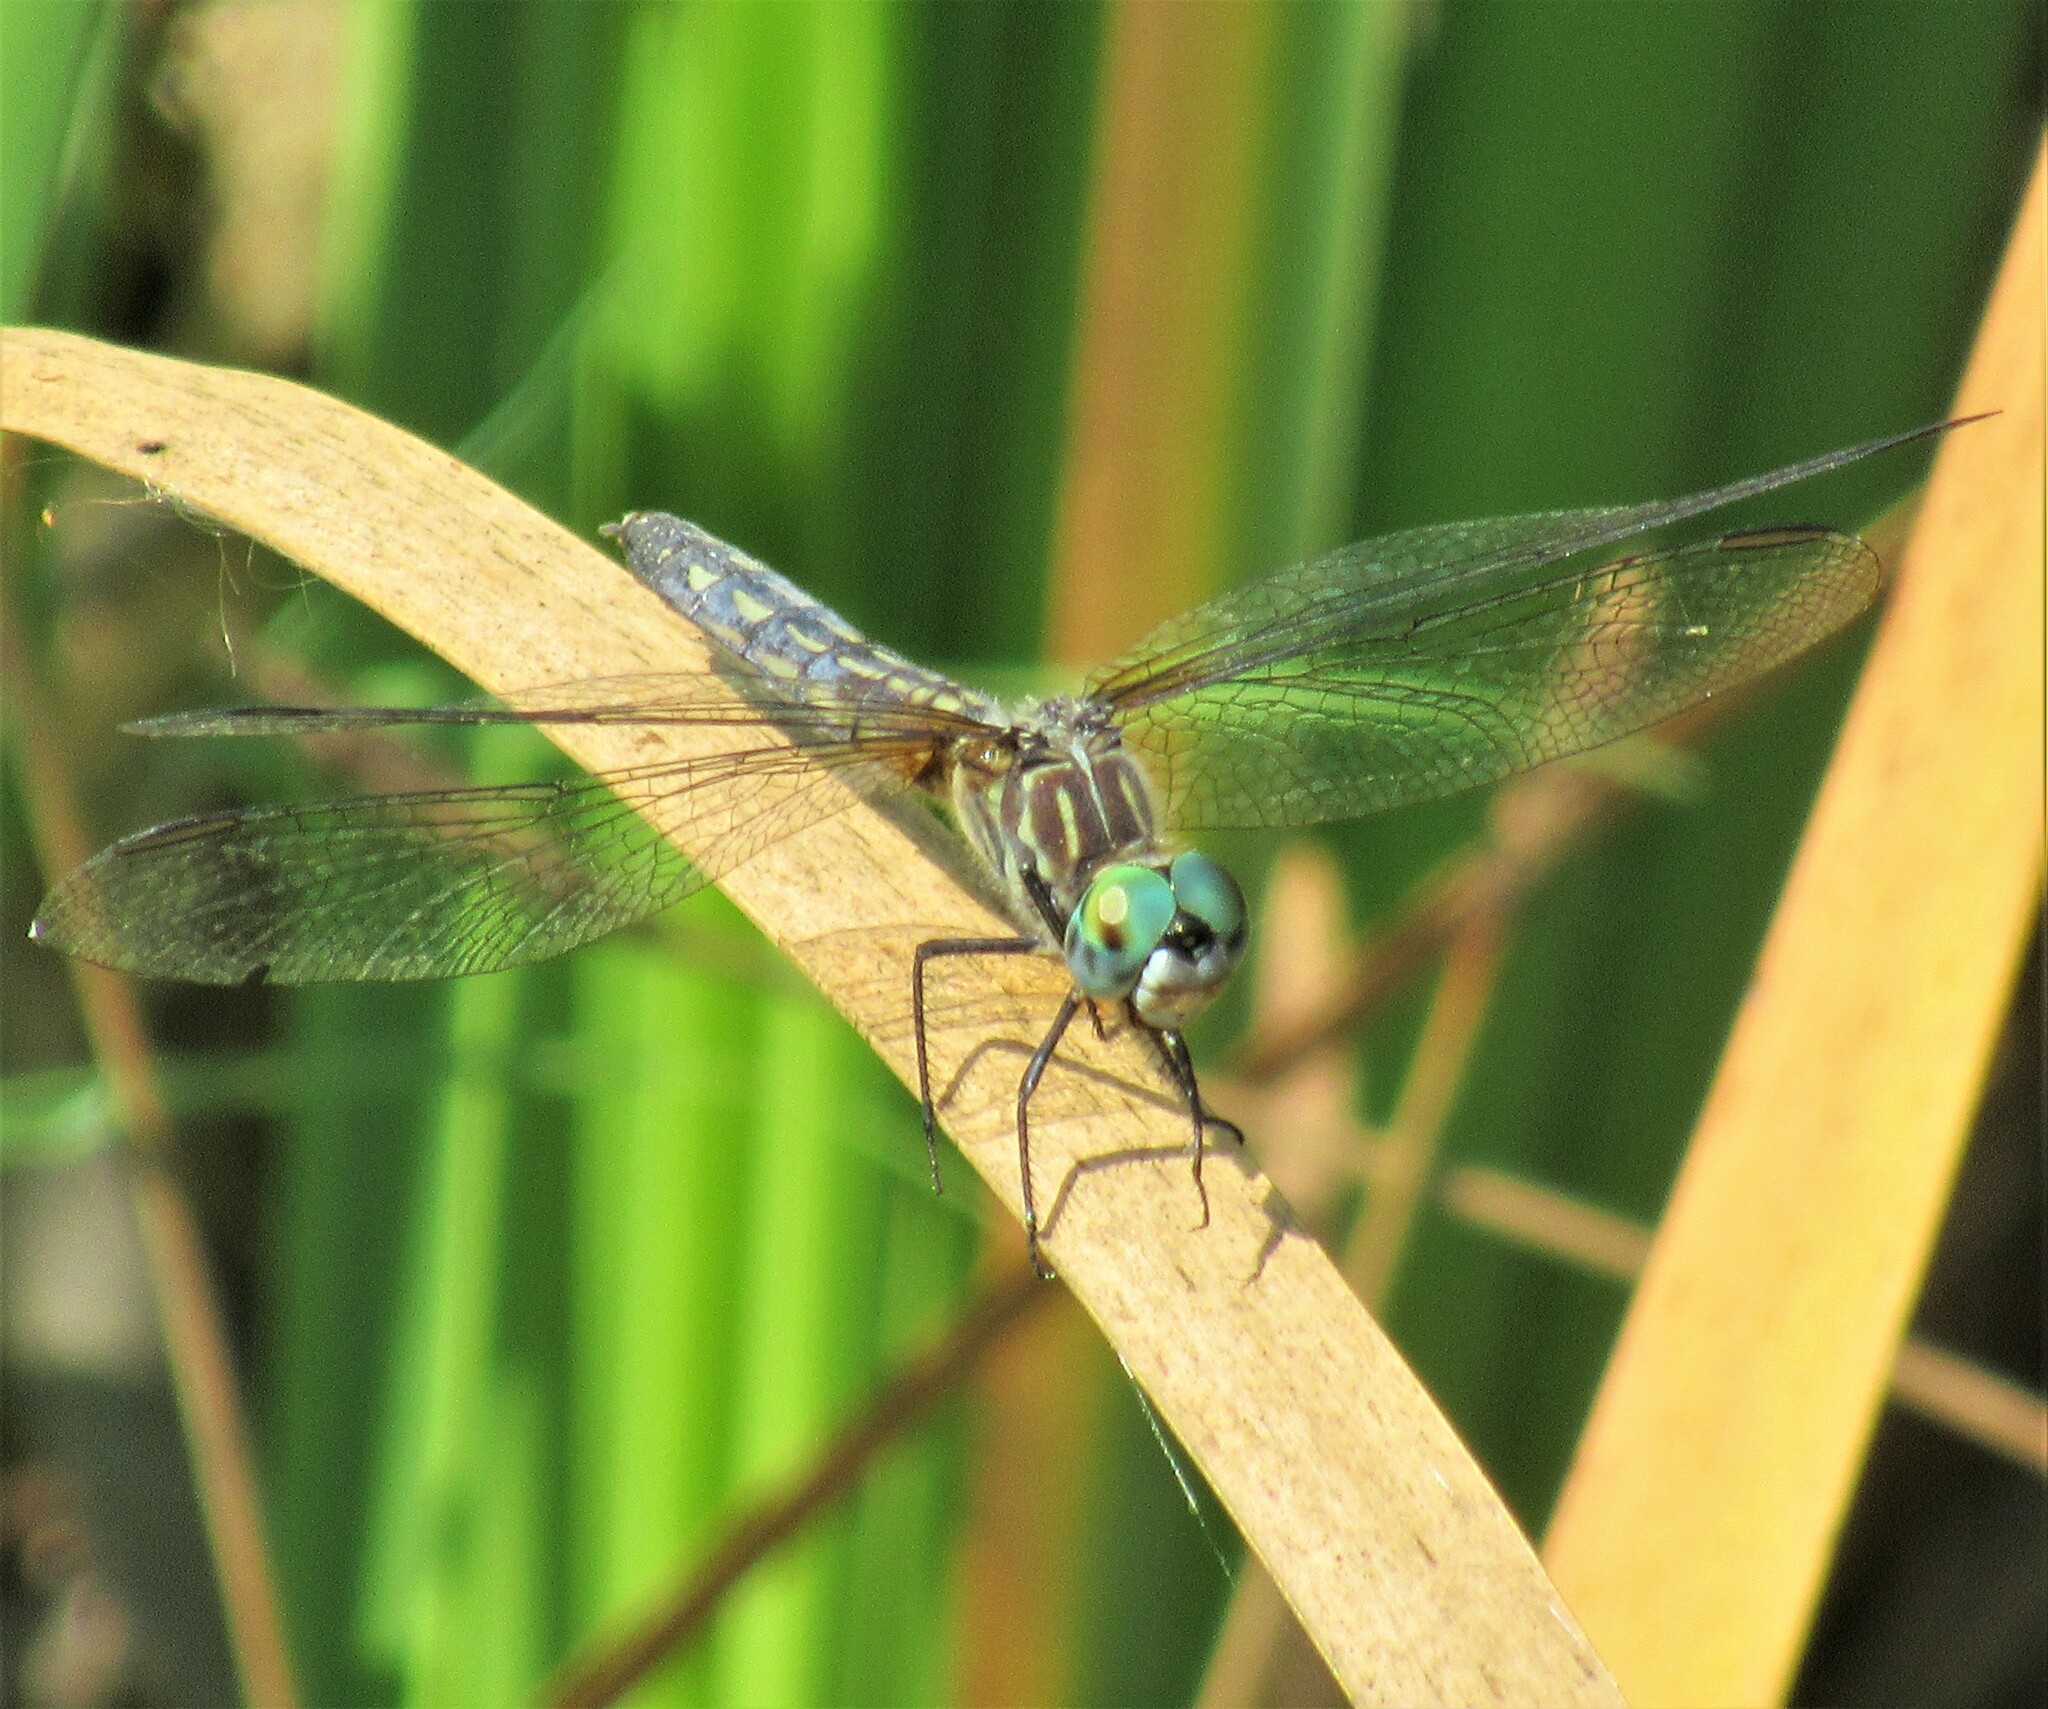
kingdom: Animalia
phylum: Arthropoda
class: Insecta
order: Odonata
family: Libellulidae
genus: Pachydiplax
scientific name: Pachydiplax longipennis
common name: Blue dasher
